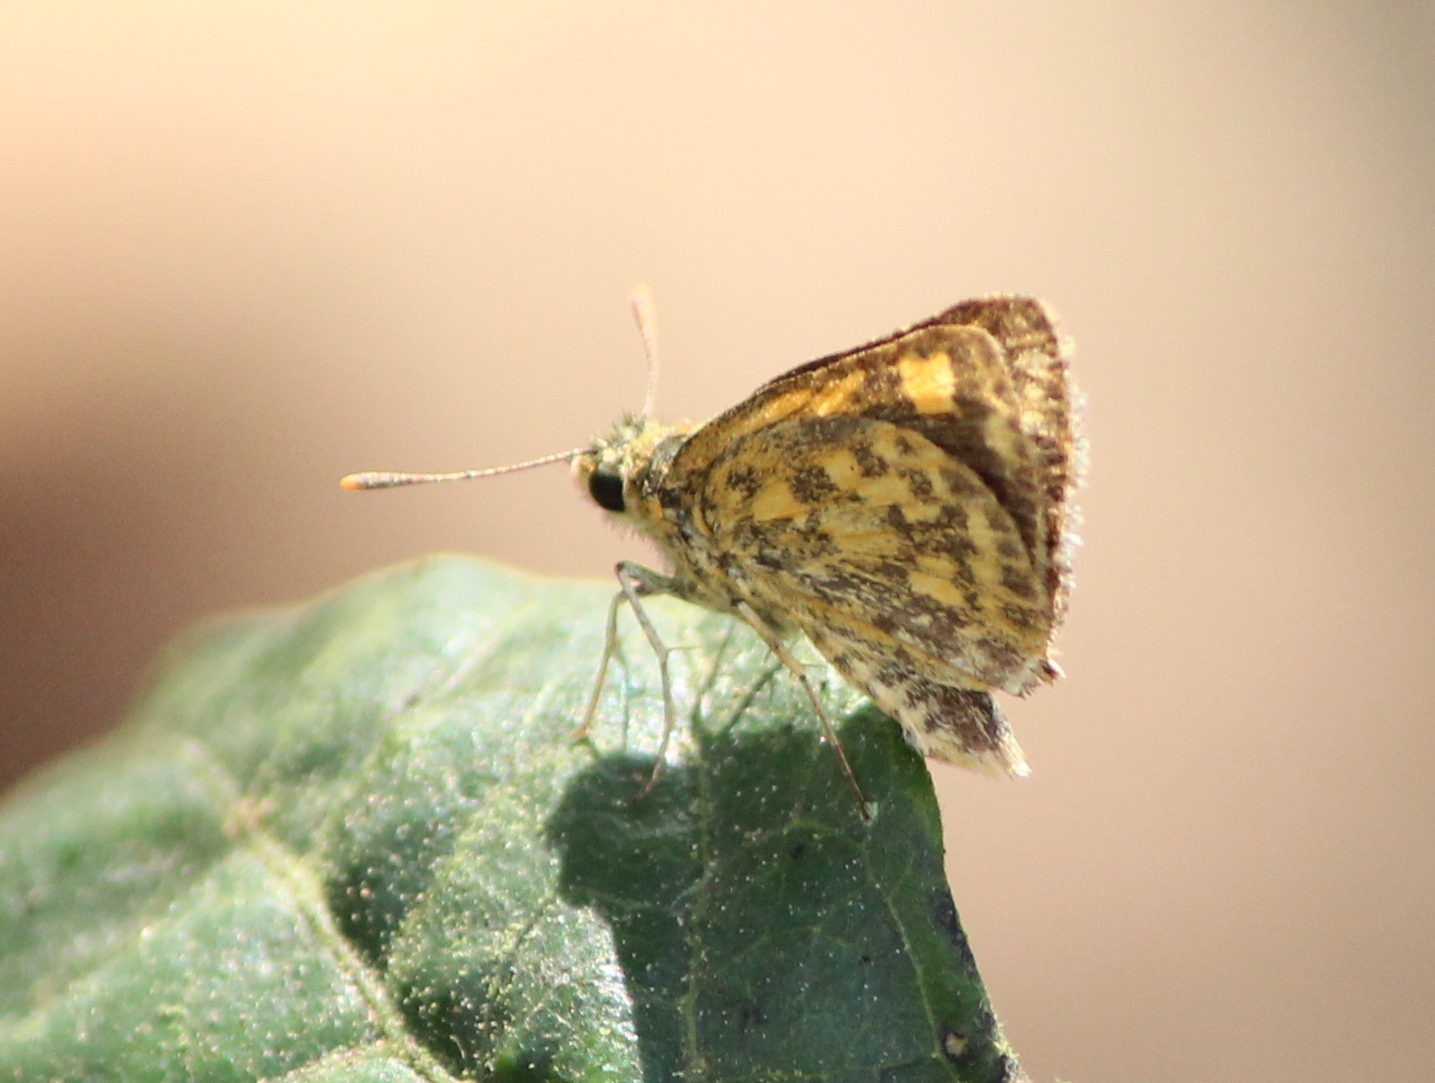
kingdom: Animalia
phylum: Arthropoda
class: Insecta
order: Lepidoptera
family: Hesperiidae
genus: Ampittia
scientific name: Ampittia dioscorides
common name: Common bush hopper
